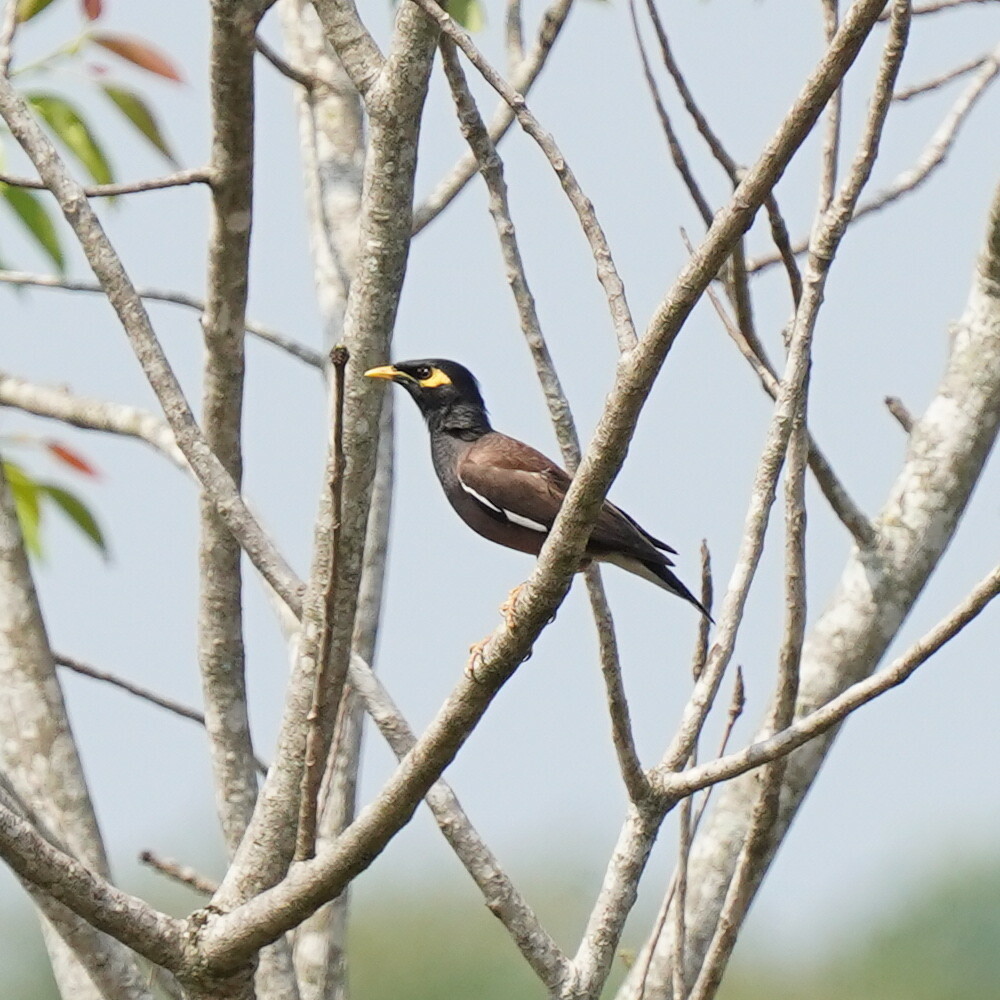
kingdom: Animalia
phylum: Chordata
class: Aves
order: Passeriformes
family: Sturnidae
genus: Acridotheres
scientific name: Acridotheres tristis
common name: Common myna
